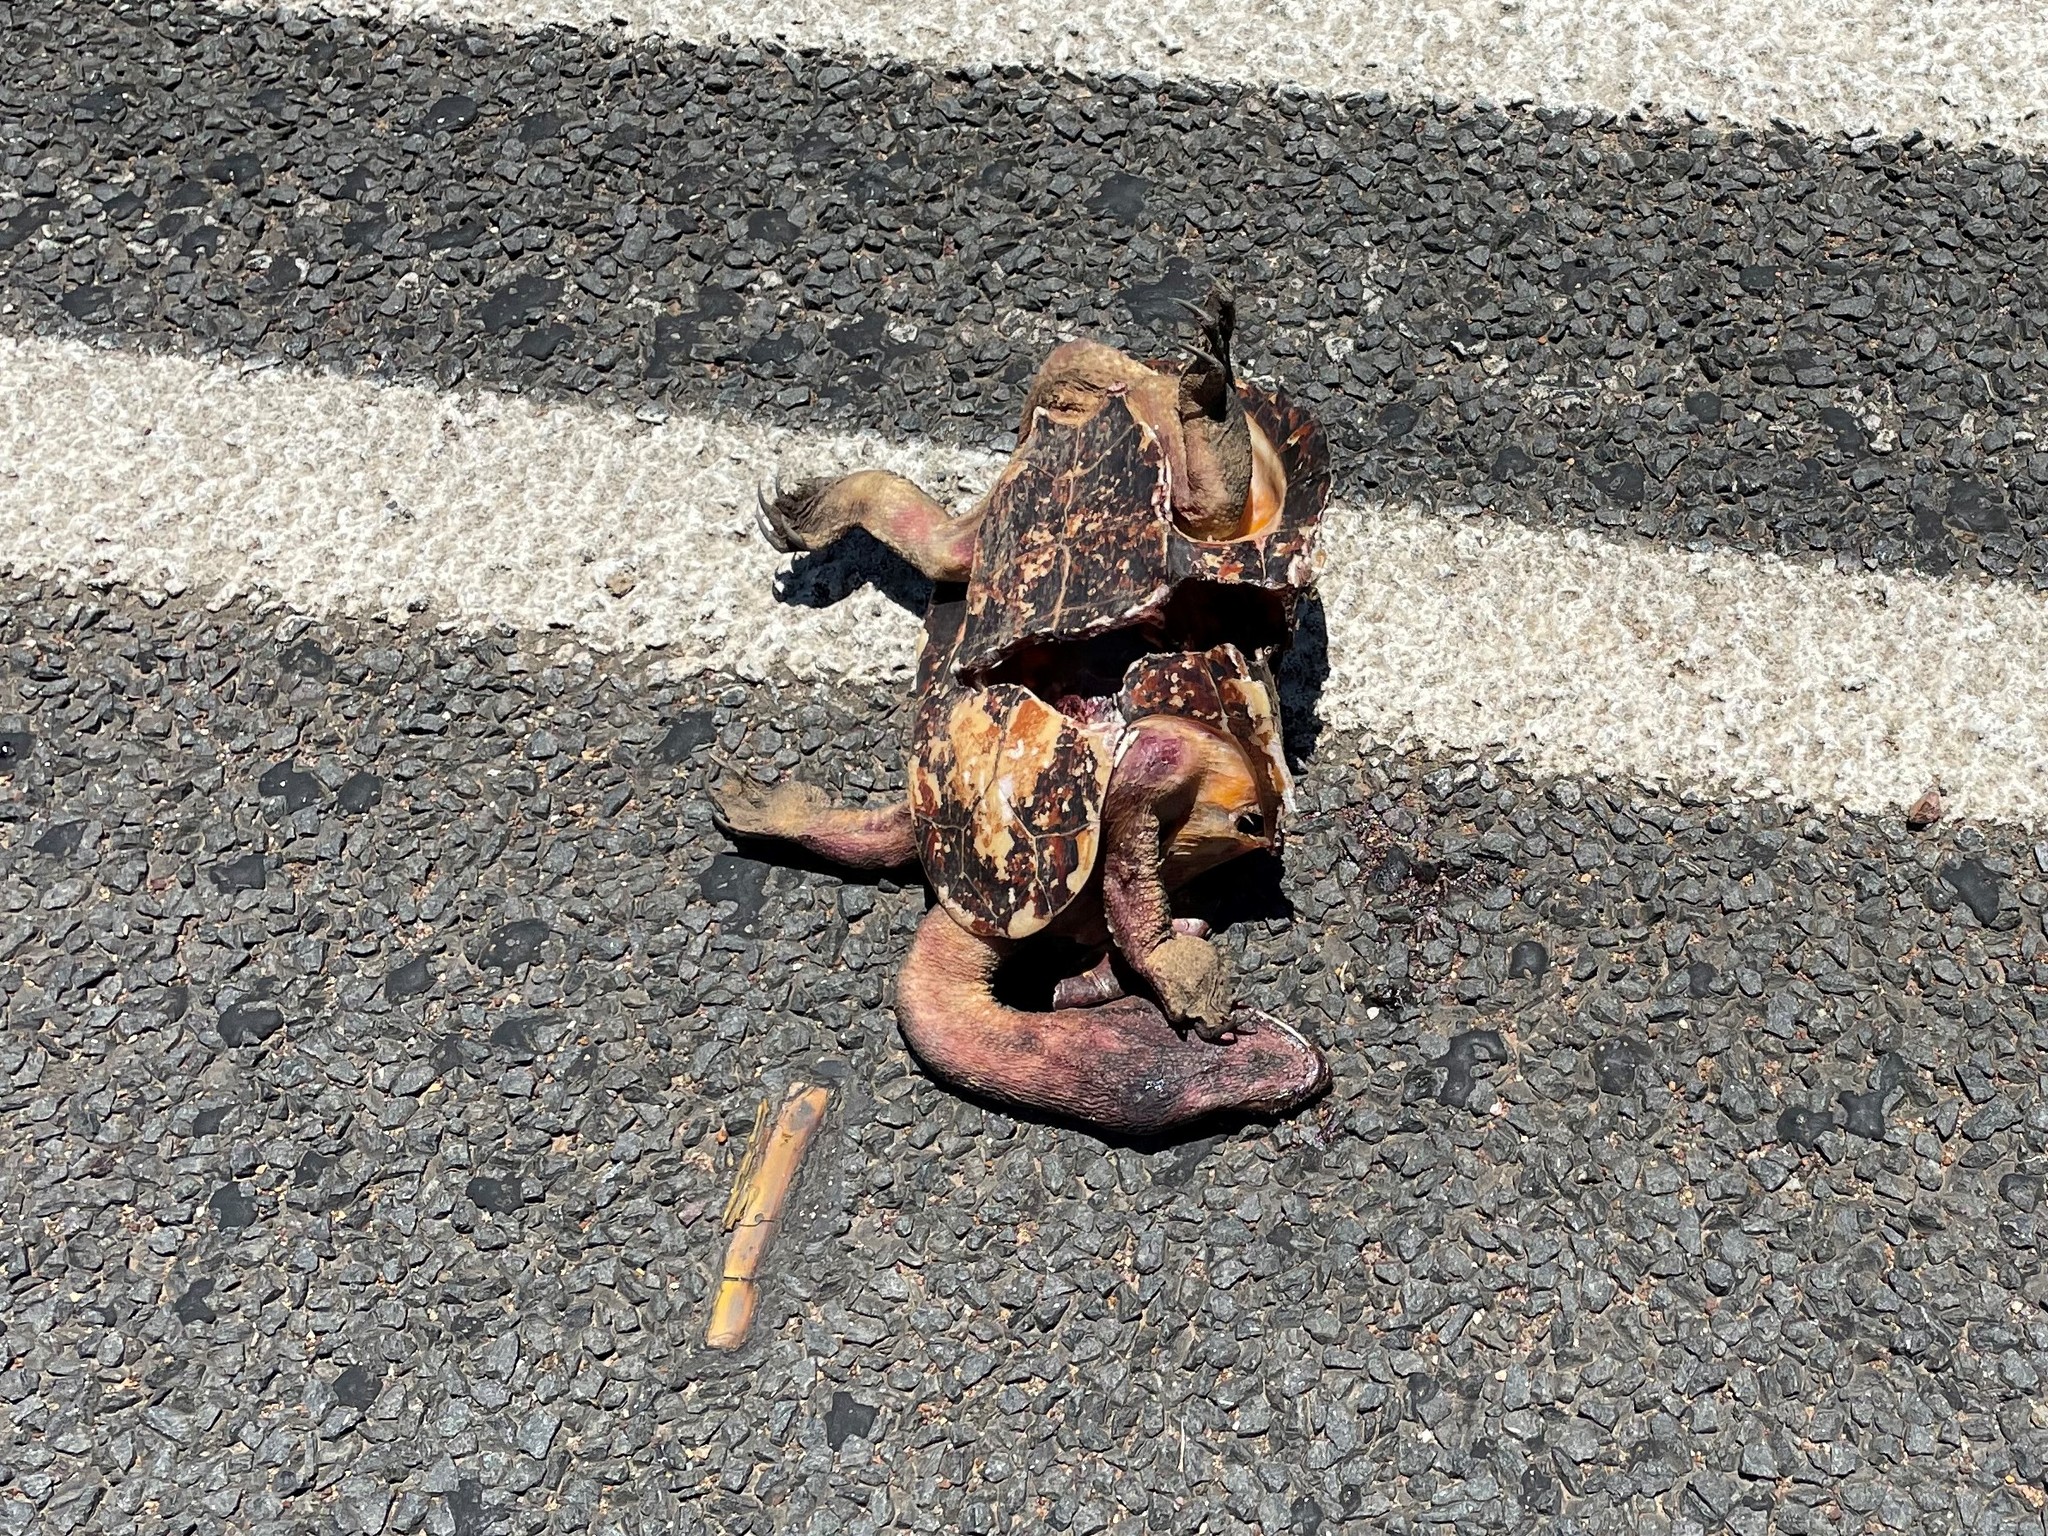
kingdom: Animalia
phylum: Chordata
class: Testudines
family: Chelidae
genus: Chelodina
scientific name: Chelodina expansa
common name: Giant snakeneck turtle
